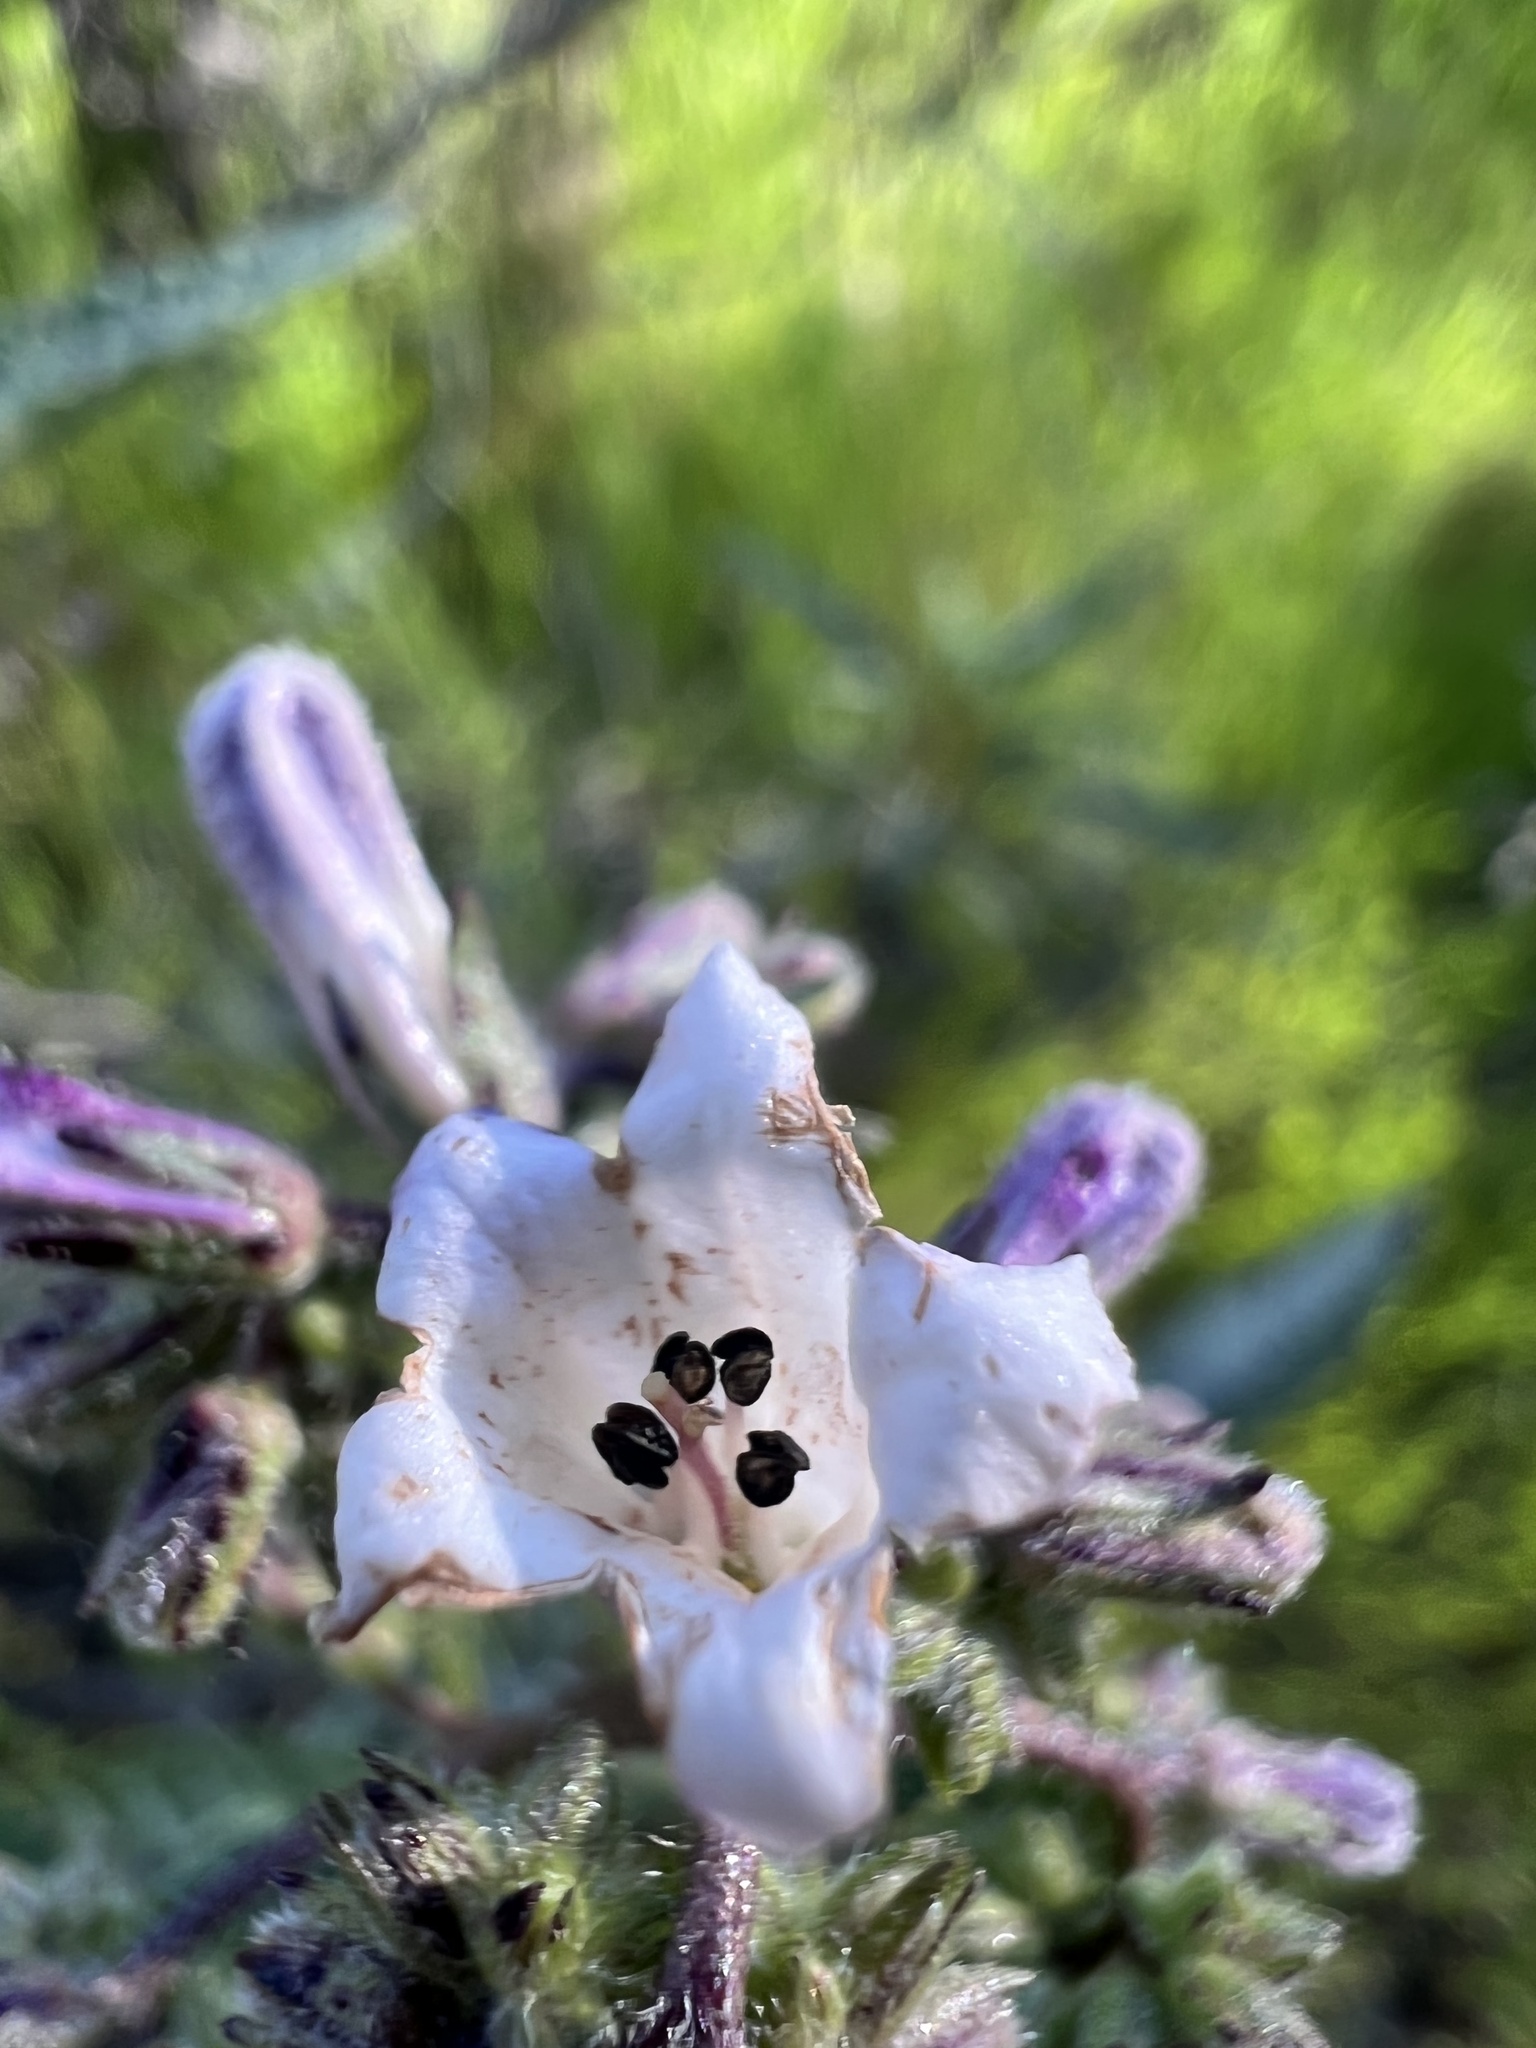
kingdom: Plantae
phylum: Tracheophyta
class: Magnoliopsida
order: Boraginales
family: Namaceae
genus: Eriodictyon
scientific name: Eriodictyon californicum
